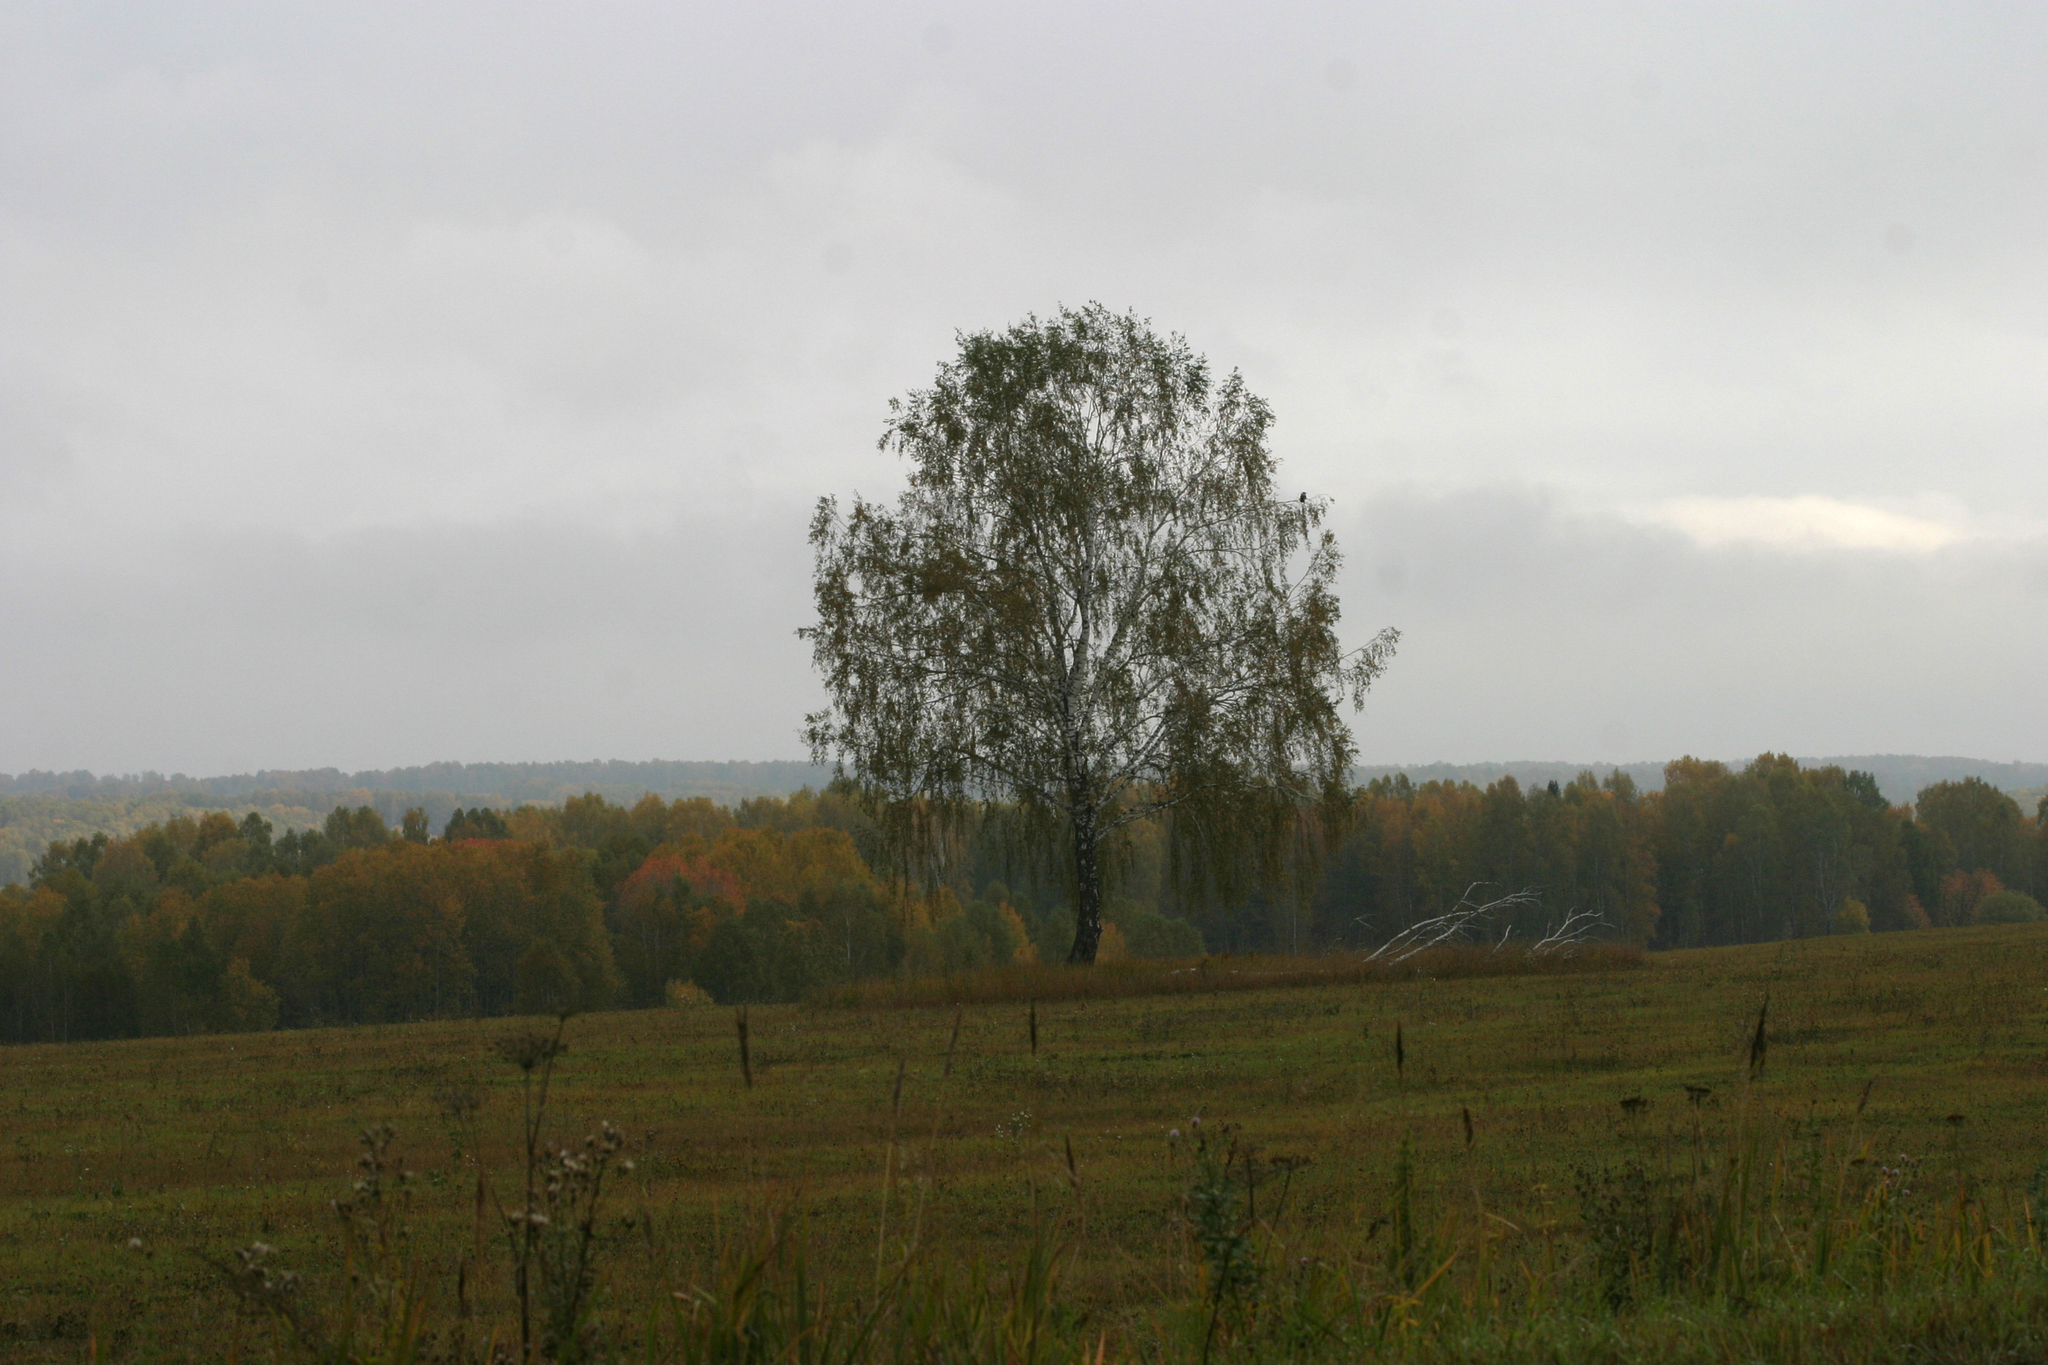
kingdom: Plantae
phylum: Tracheophyta
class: Magnoliopsida
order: Fagales
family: Betulaceae
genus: Betula
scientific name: Betula pendula
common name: Silver birch
